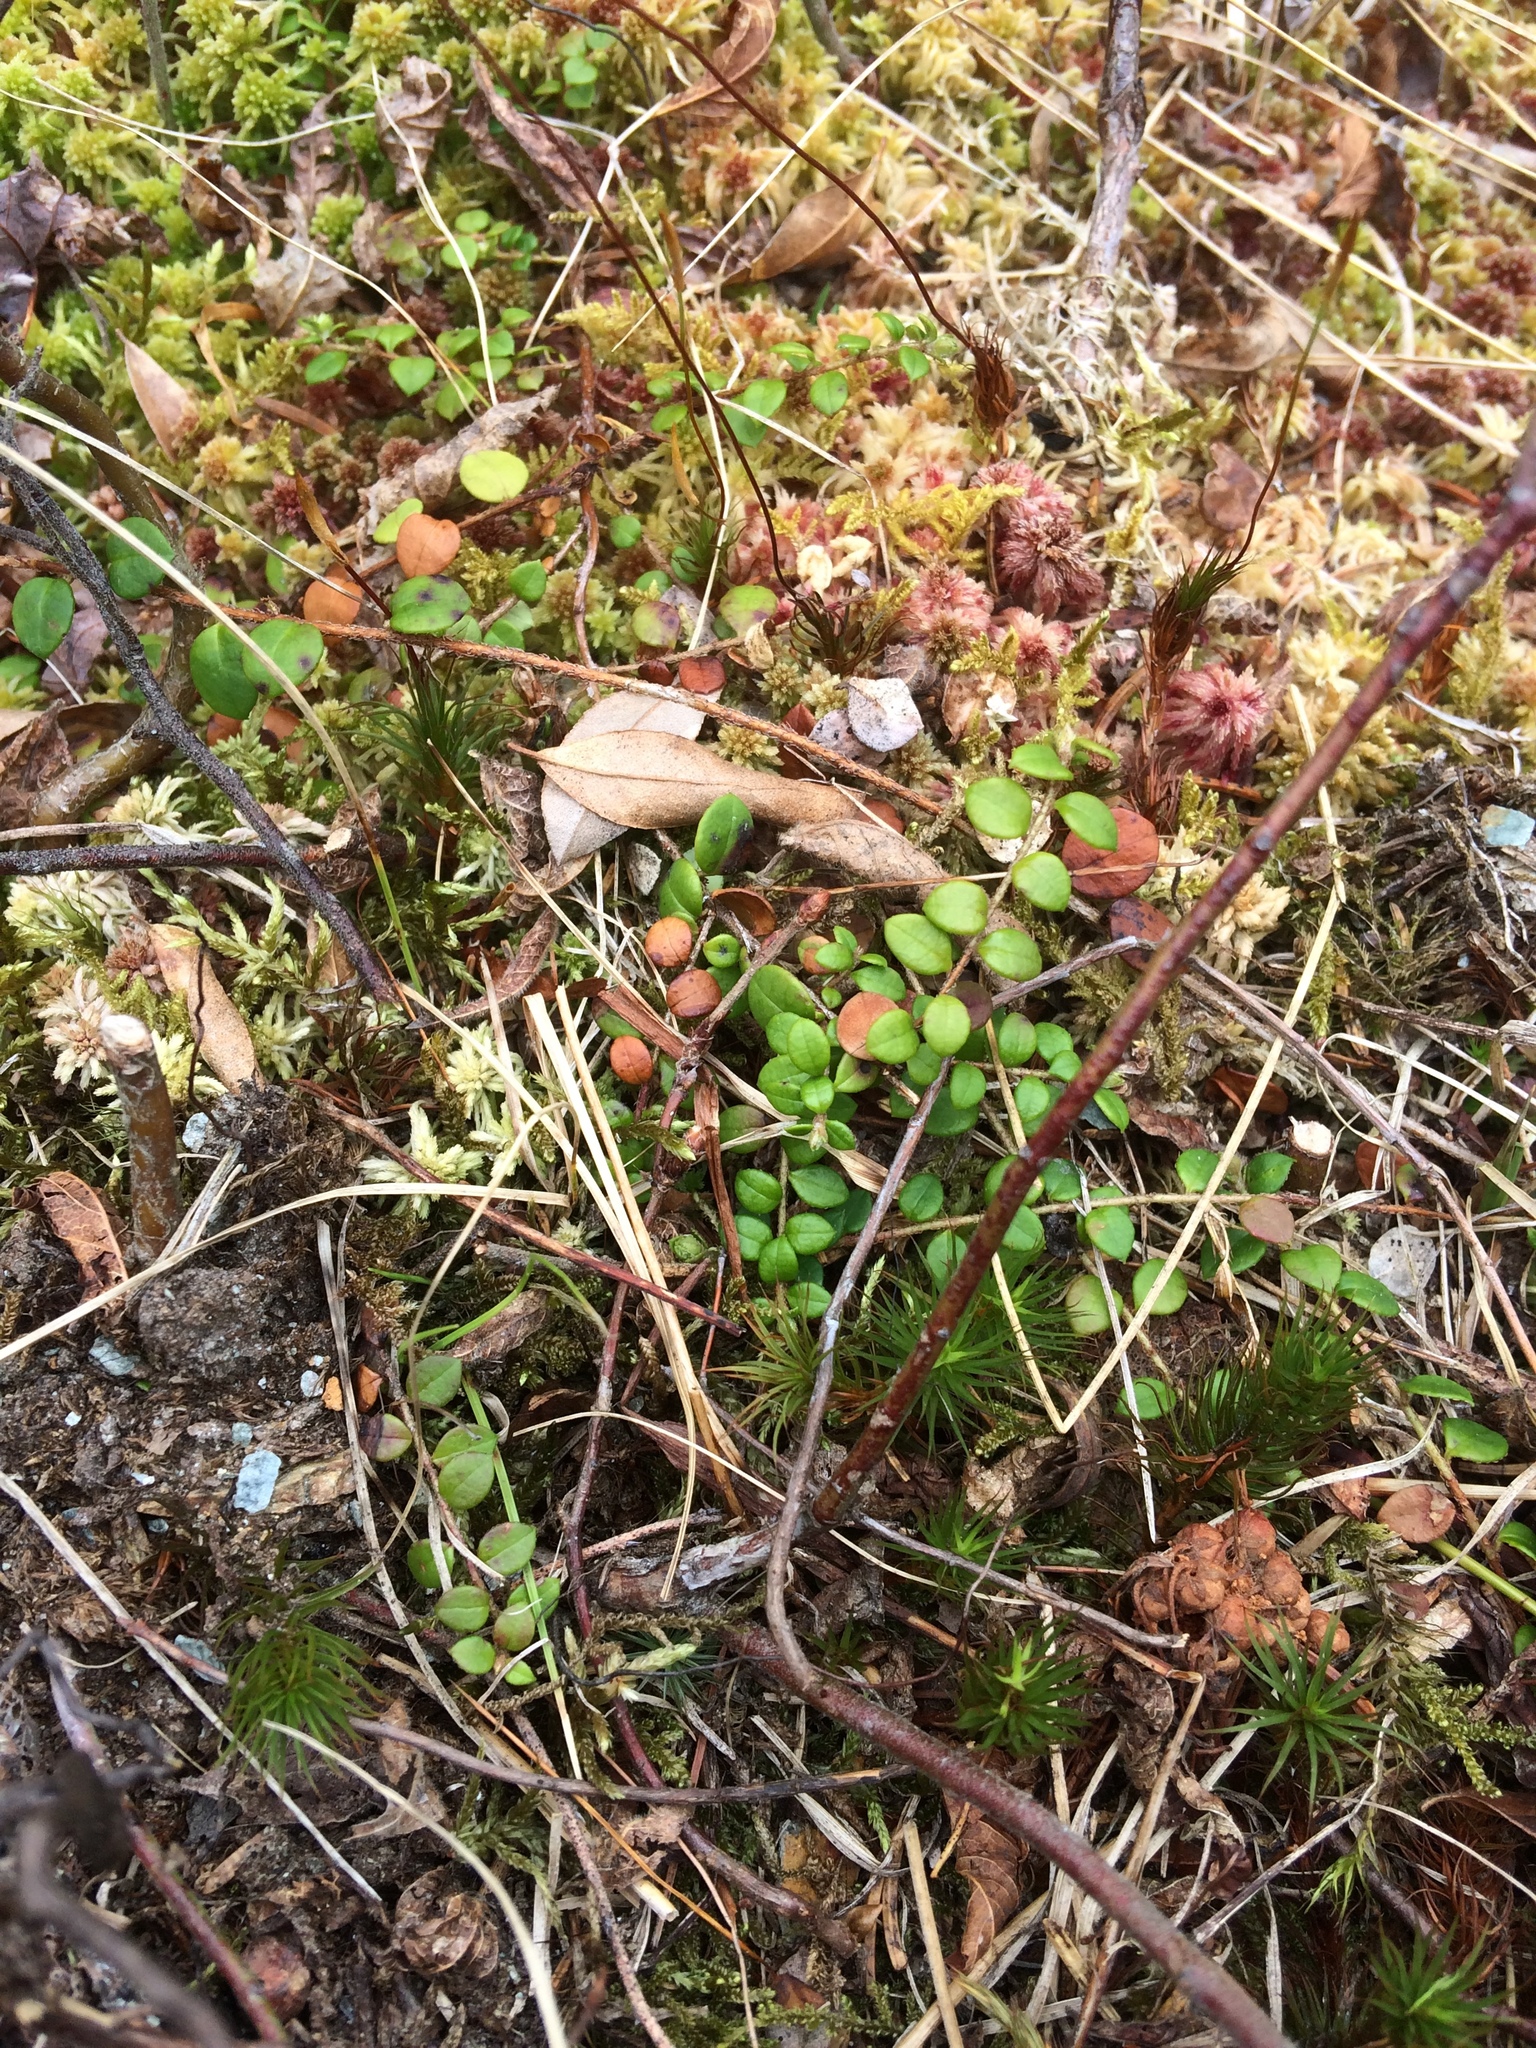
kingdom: Plantae
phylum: Tracheophyta
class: Magnoliopsida
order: Ericales
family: Ericaceae
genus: Gaultheria
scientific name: Gaultheria hispidula
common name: Cancer wintergreen
